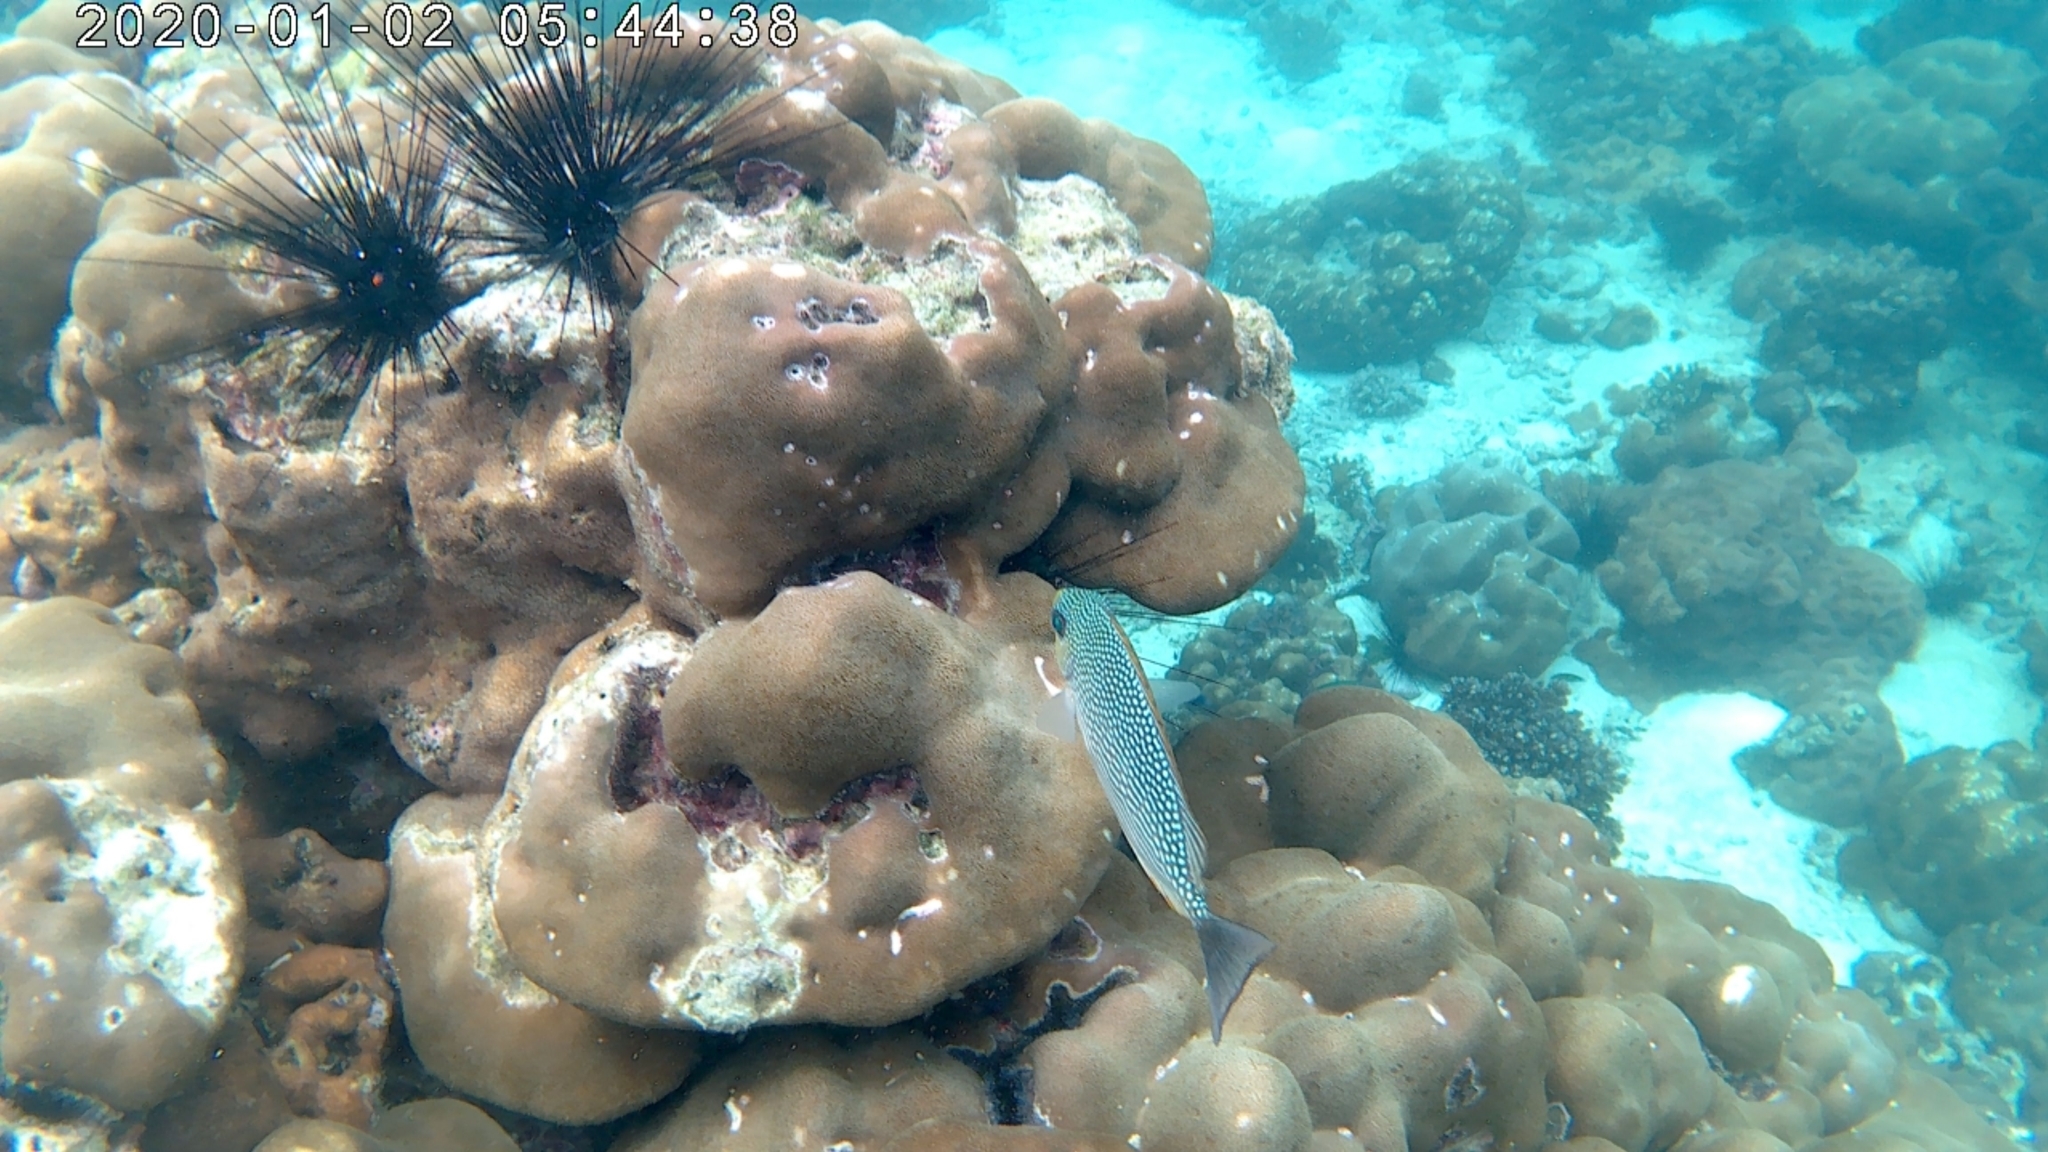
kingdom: Animalia
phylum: Chordata
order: Perciformes
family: Siganidae
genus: Siganus
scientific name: Siganus javus
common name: Java rabbitfish
